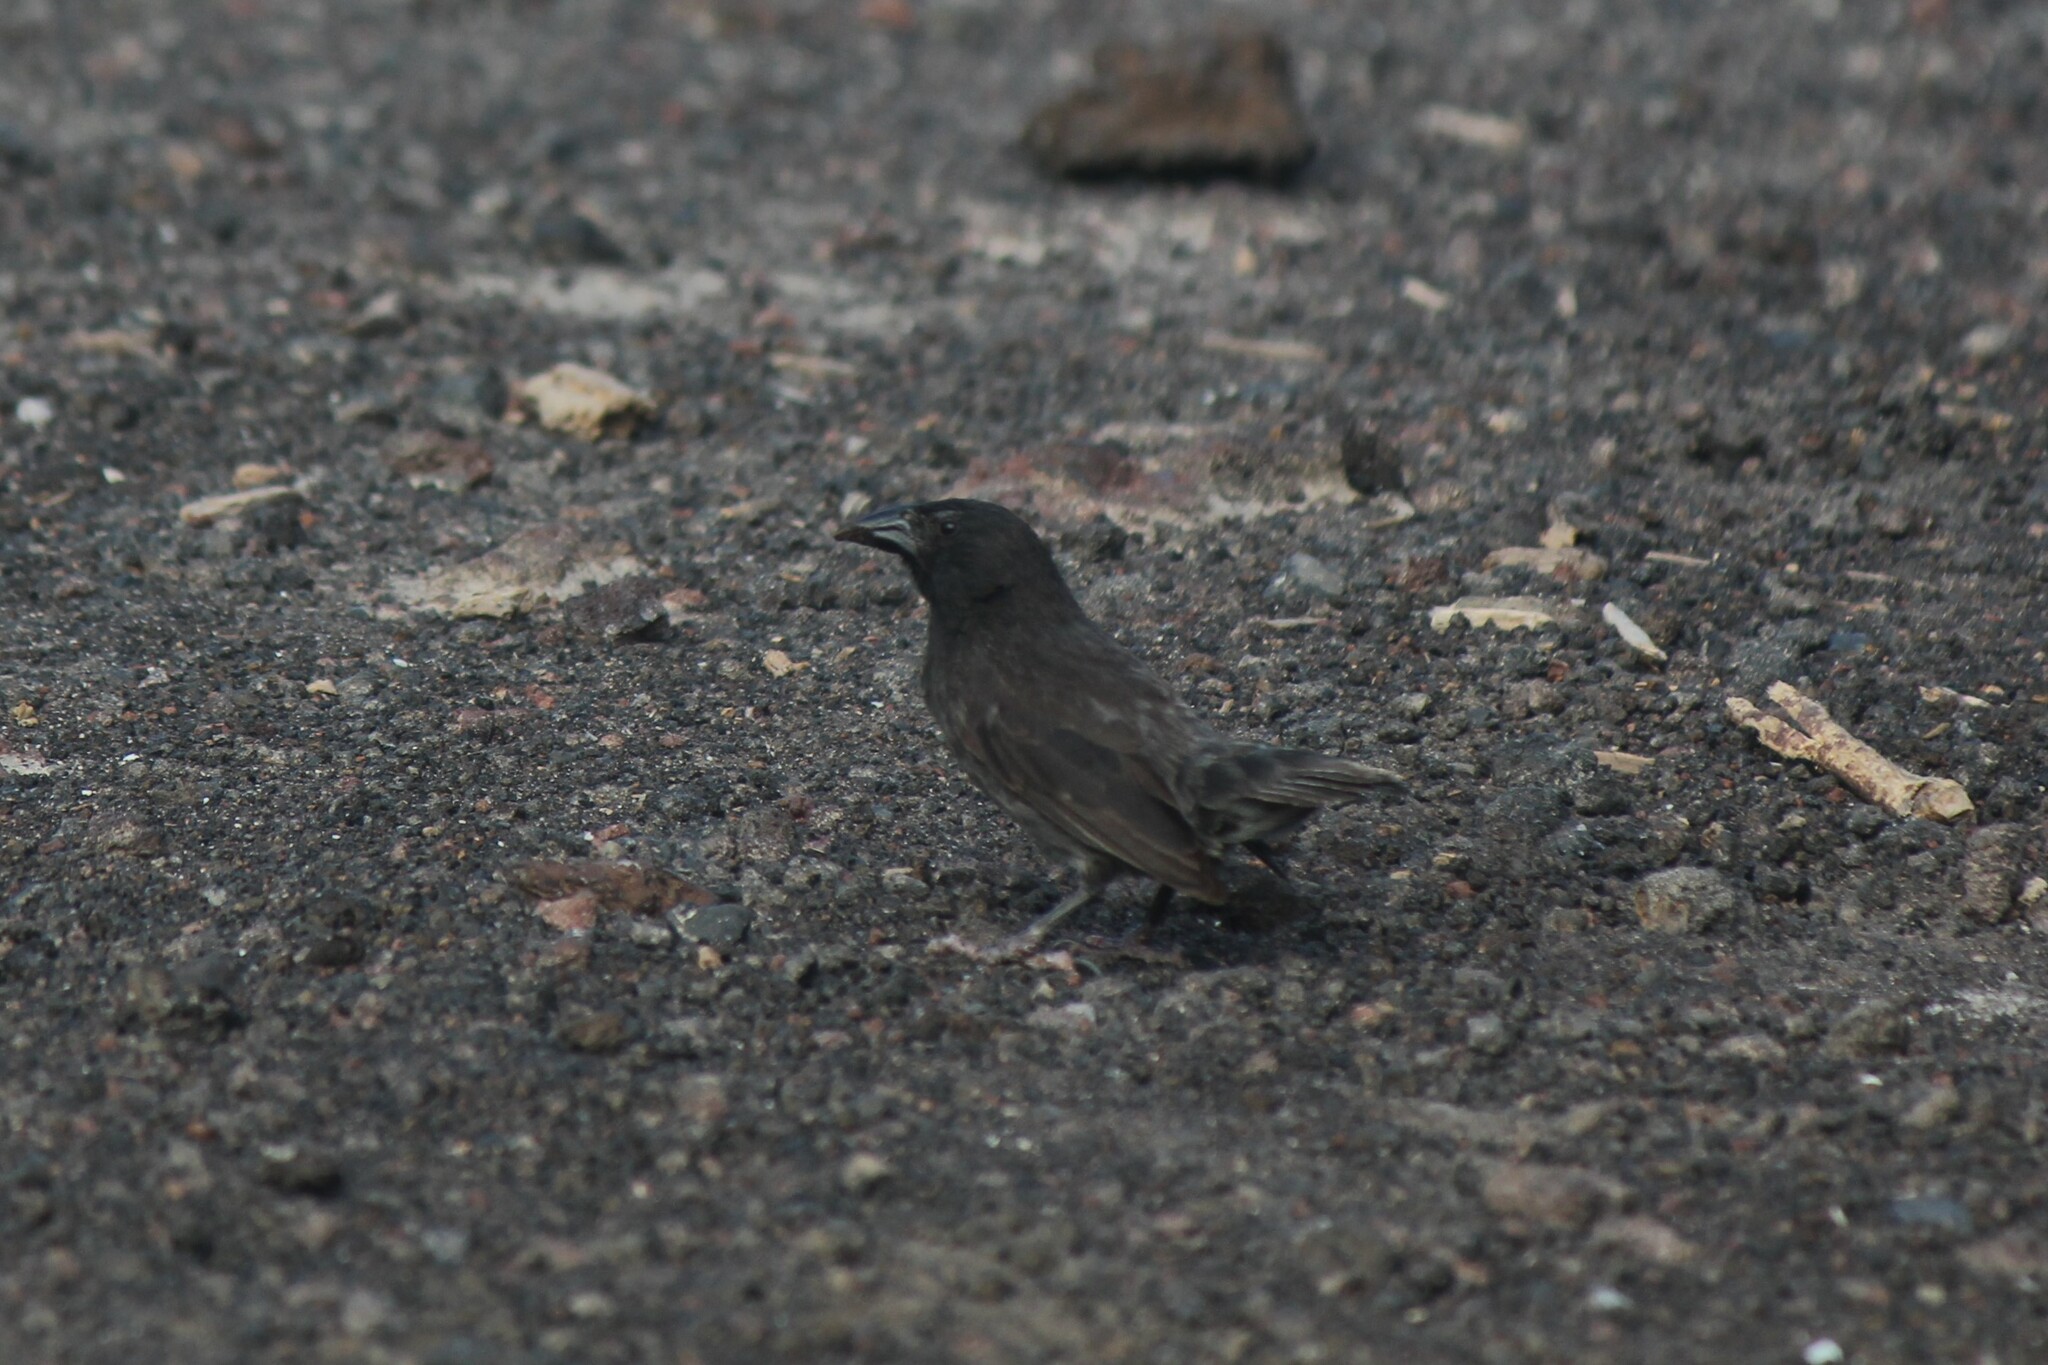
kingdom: Animalia
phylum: Chordata
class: Aves
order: Passeriformes
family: Thraupidae
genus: Geospiza
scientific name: Geospiza scandens
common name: Common cactus-finch
